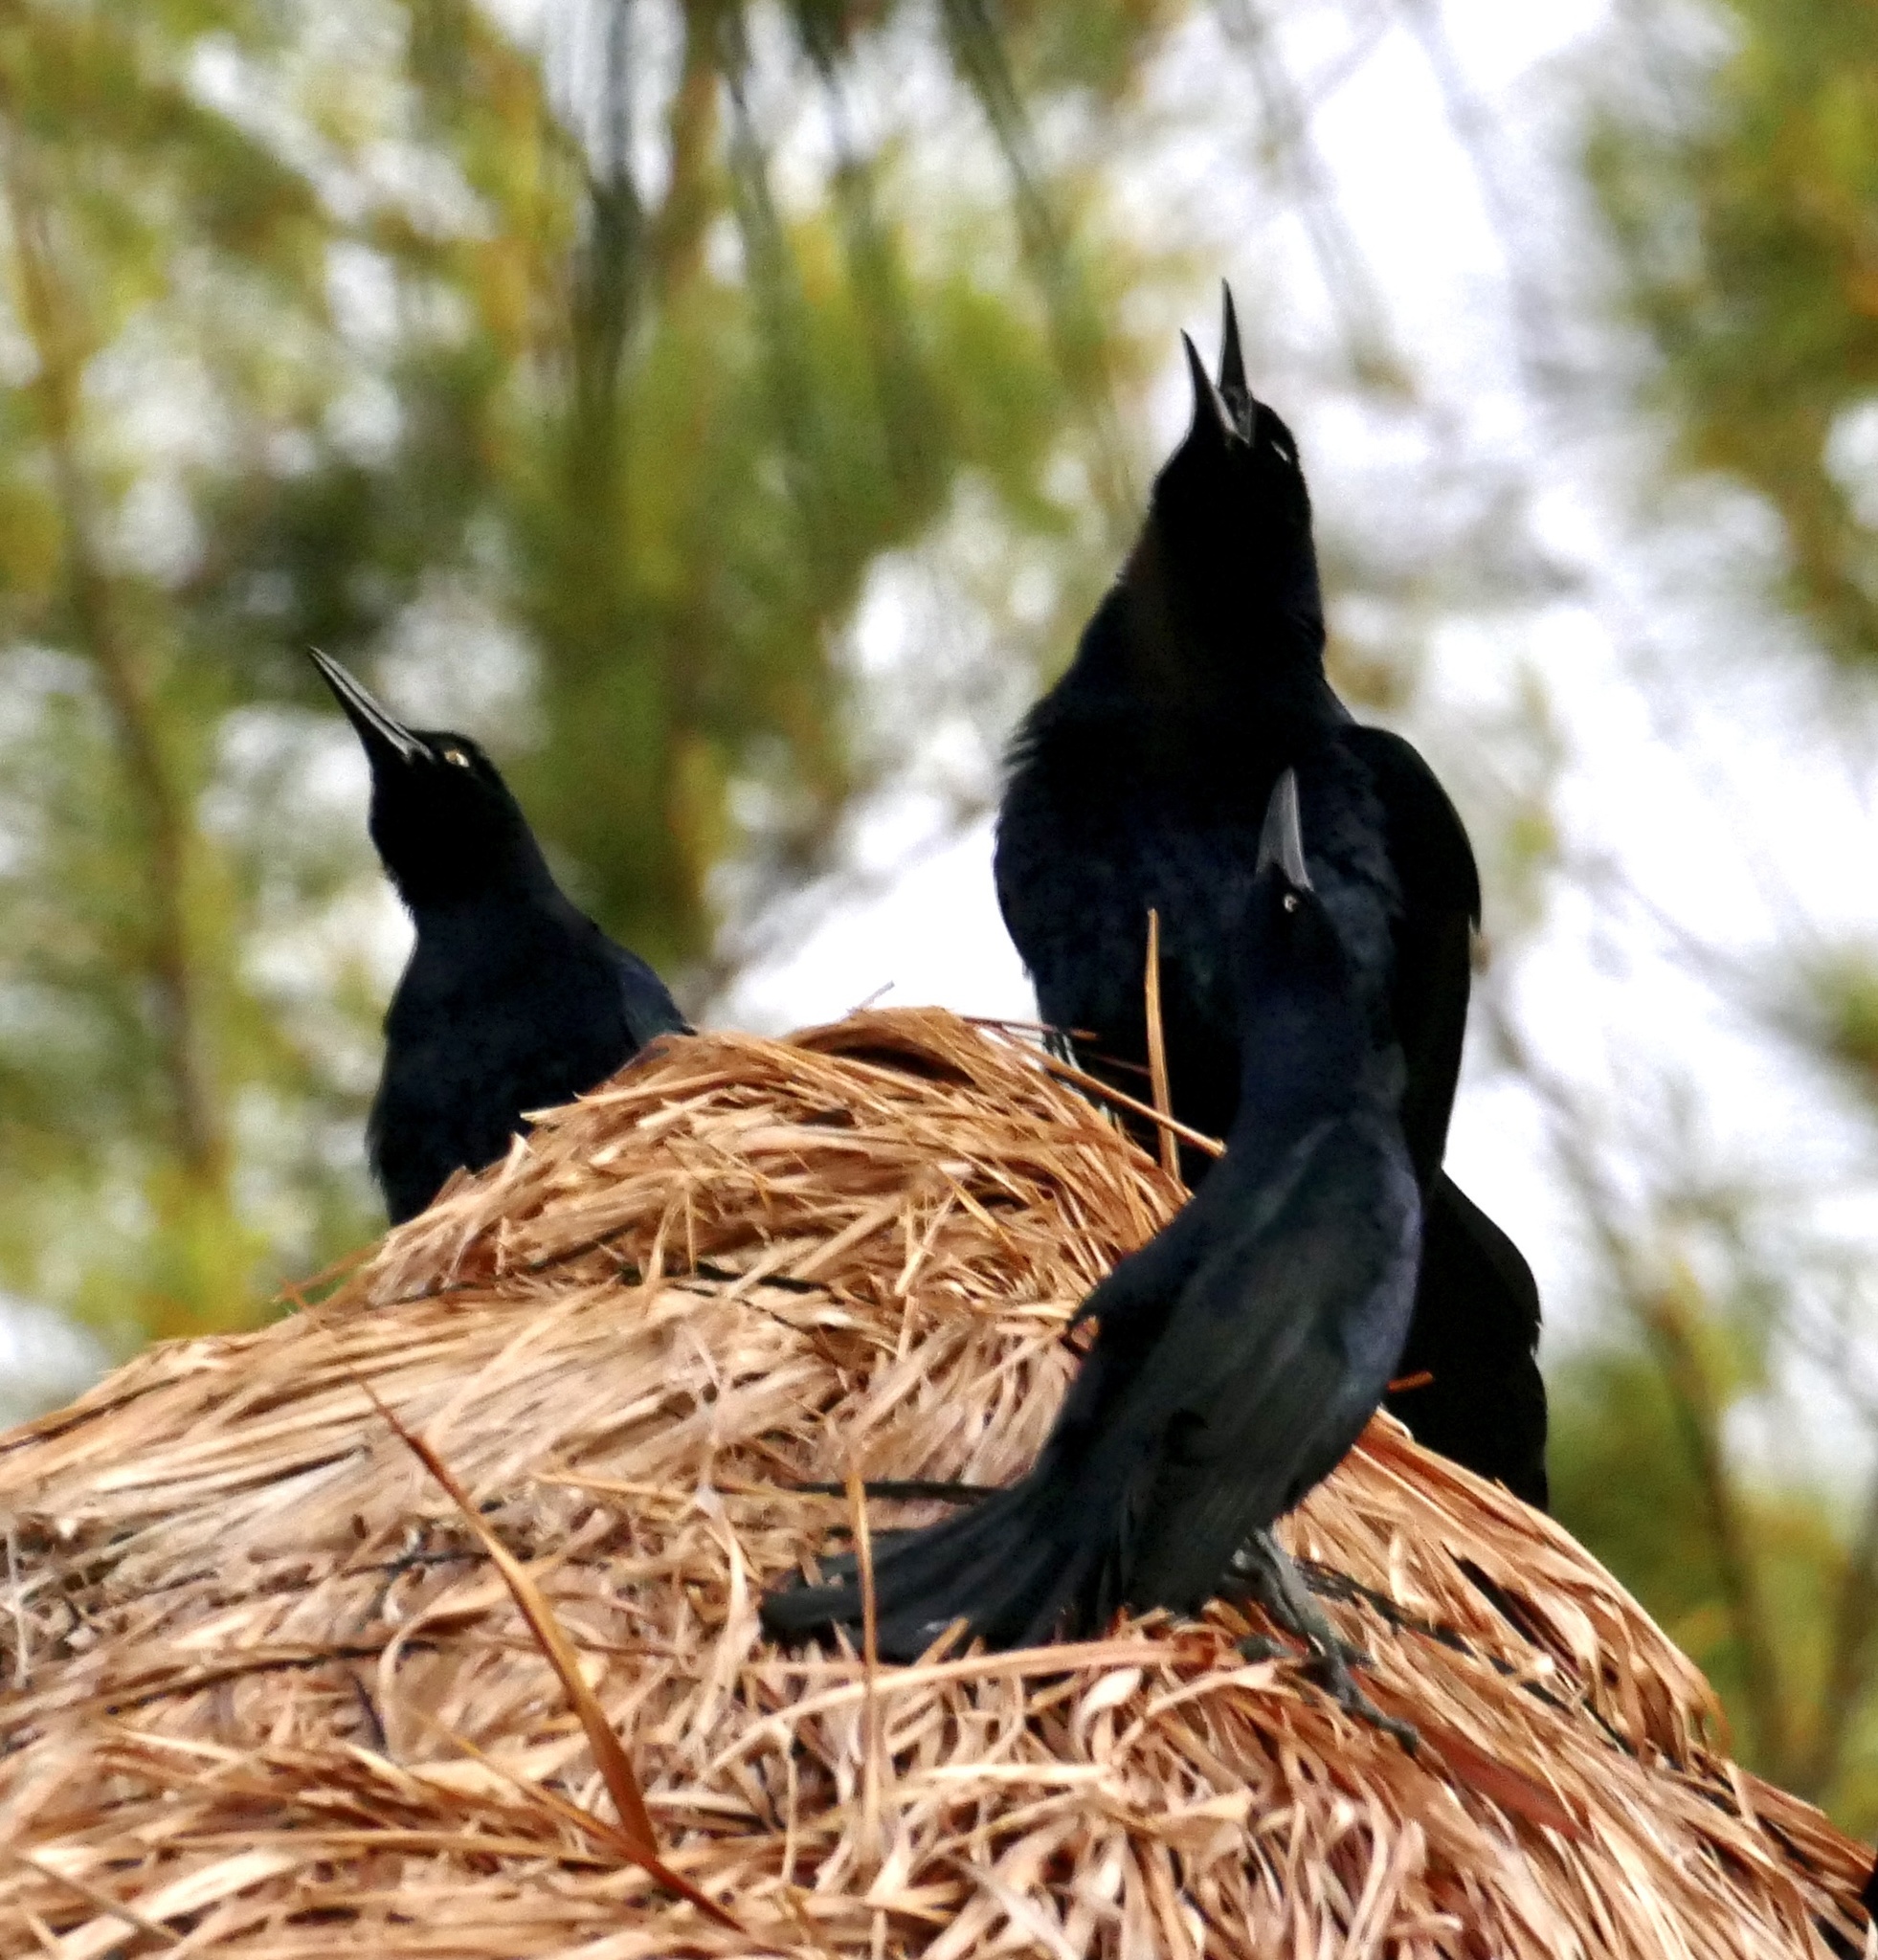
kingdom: Animalia
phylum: Chordata
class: Aves
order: Passeriformes
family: Icteridae
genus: Quiscalus
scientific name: Quiscalus mexicanus
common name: Great-tailed grackle
